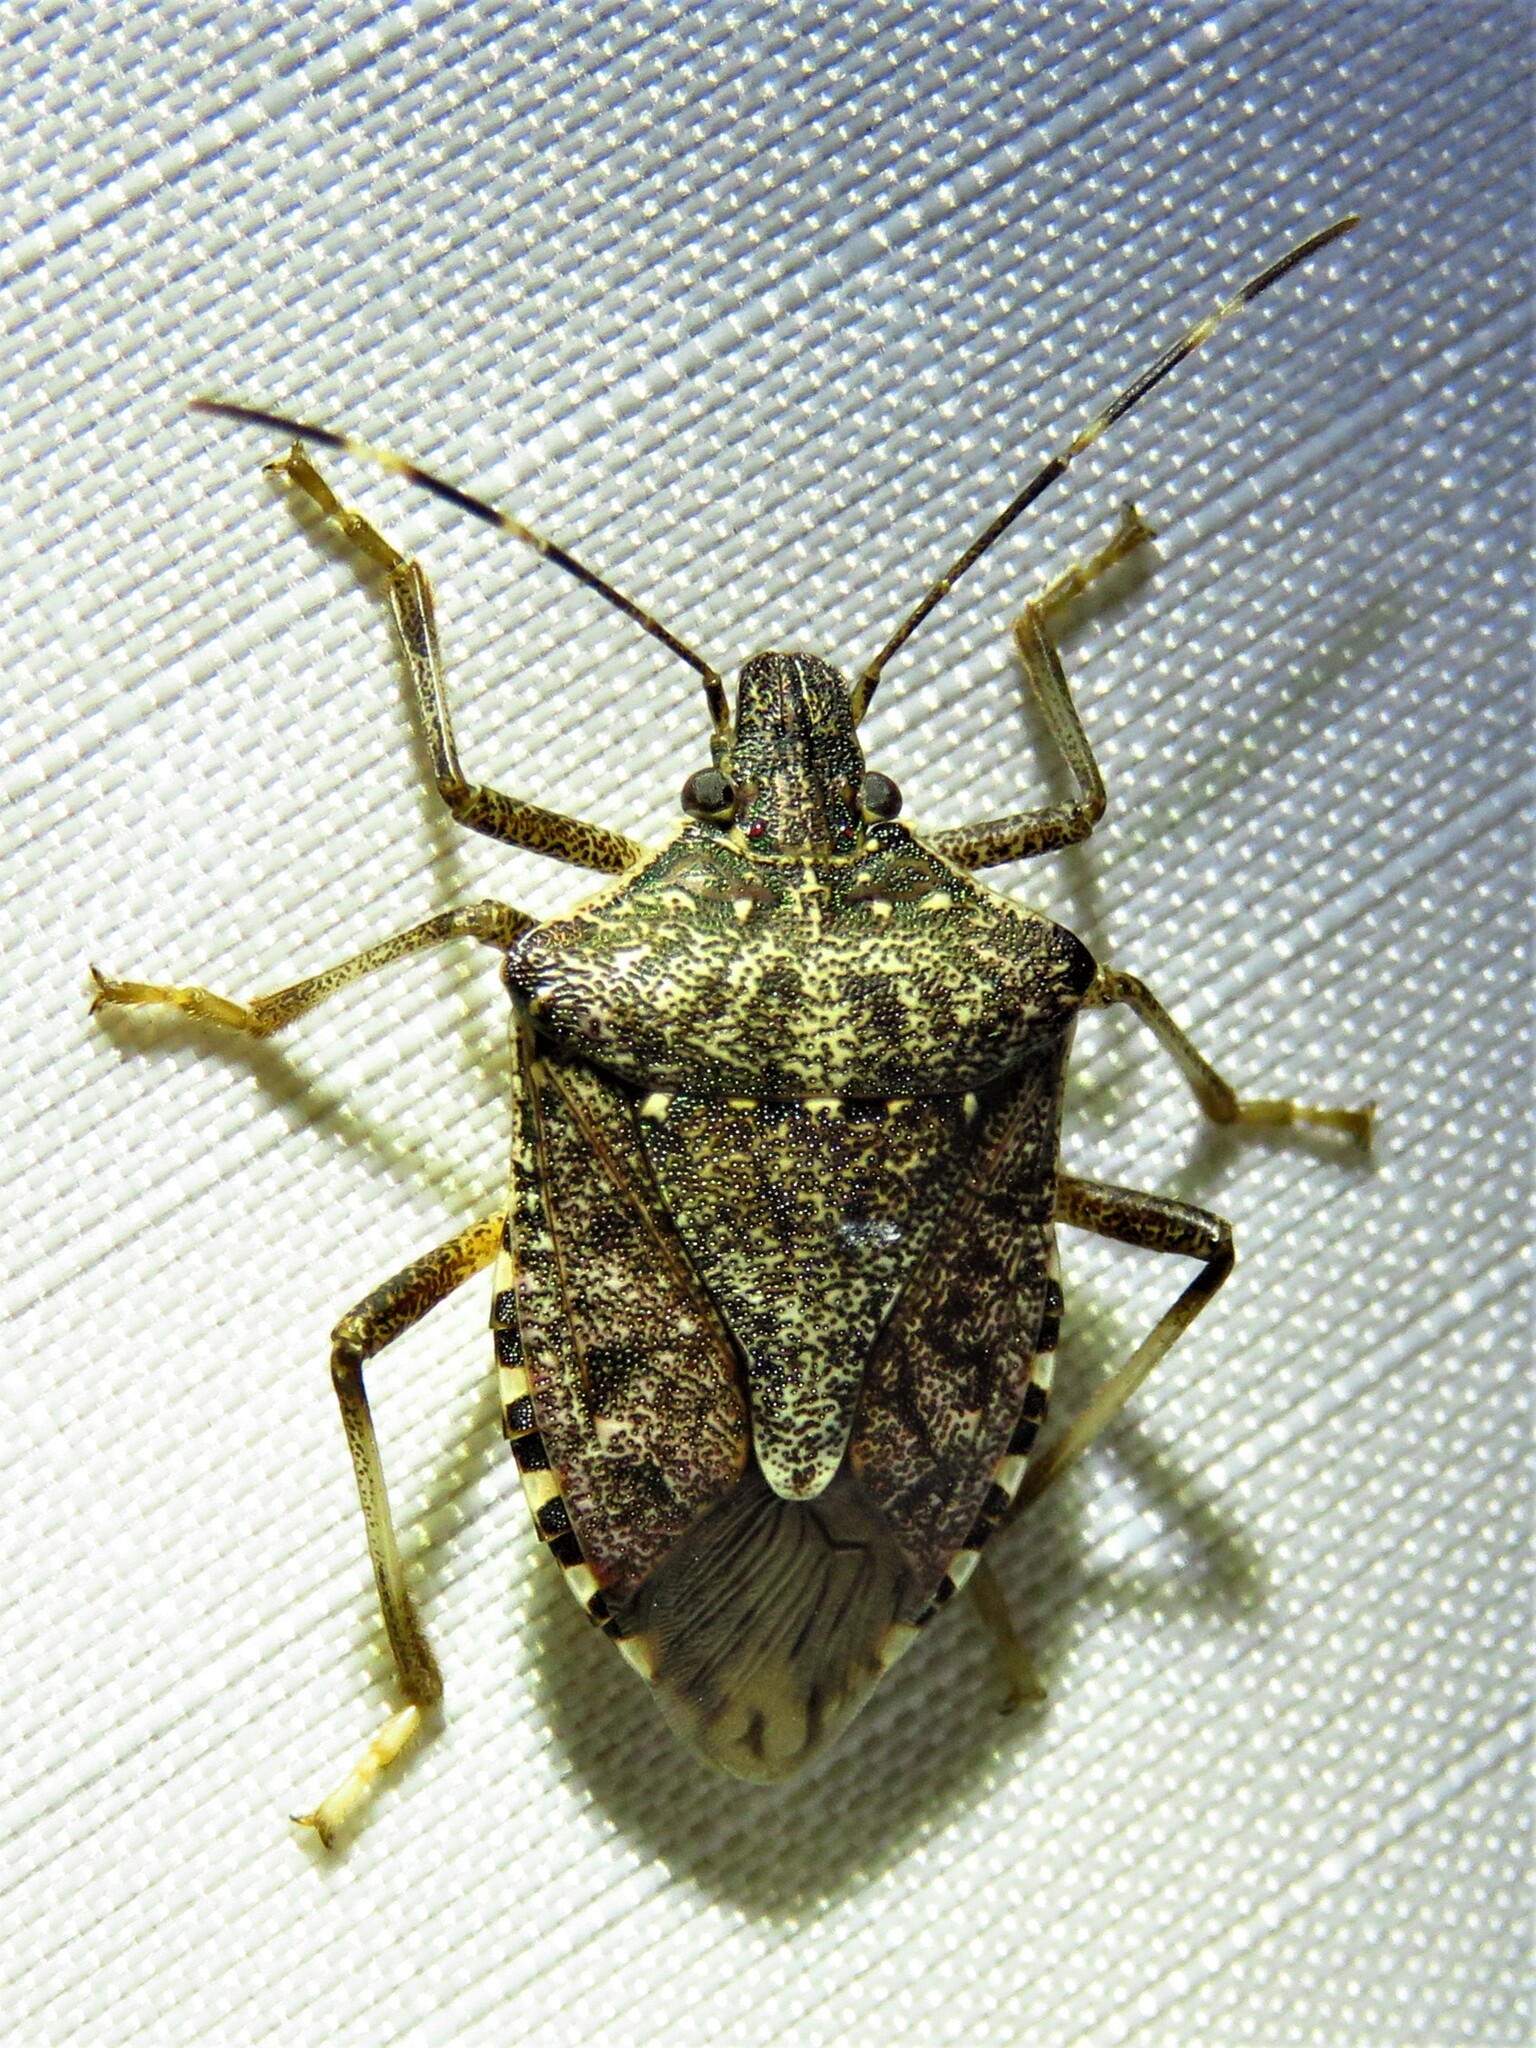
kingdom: Animalia
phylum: Arthropoda
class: Insecta
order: Hemiptera
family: Pentatomidae
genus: Halyomorpha
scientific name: Halyomorpha halys
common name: Brown marmorated stink bug
